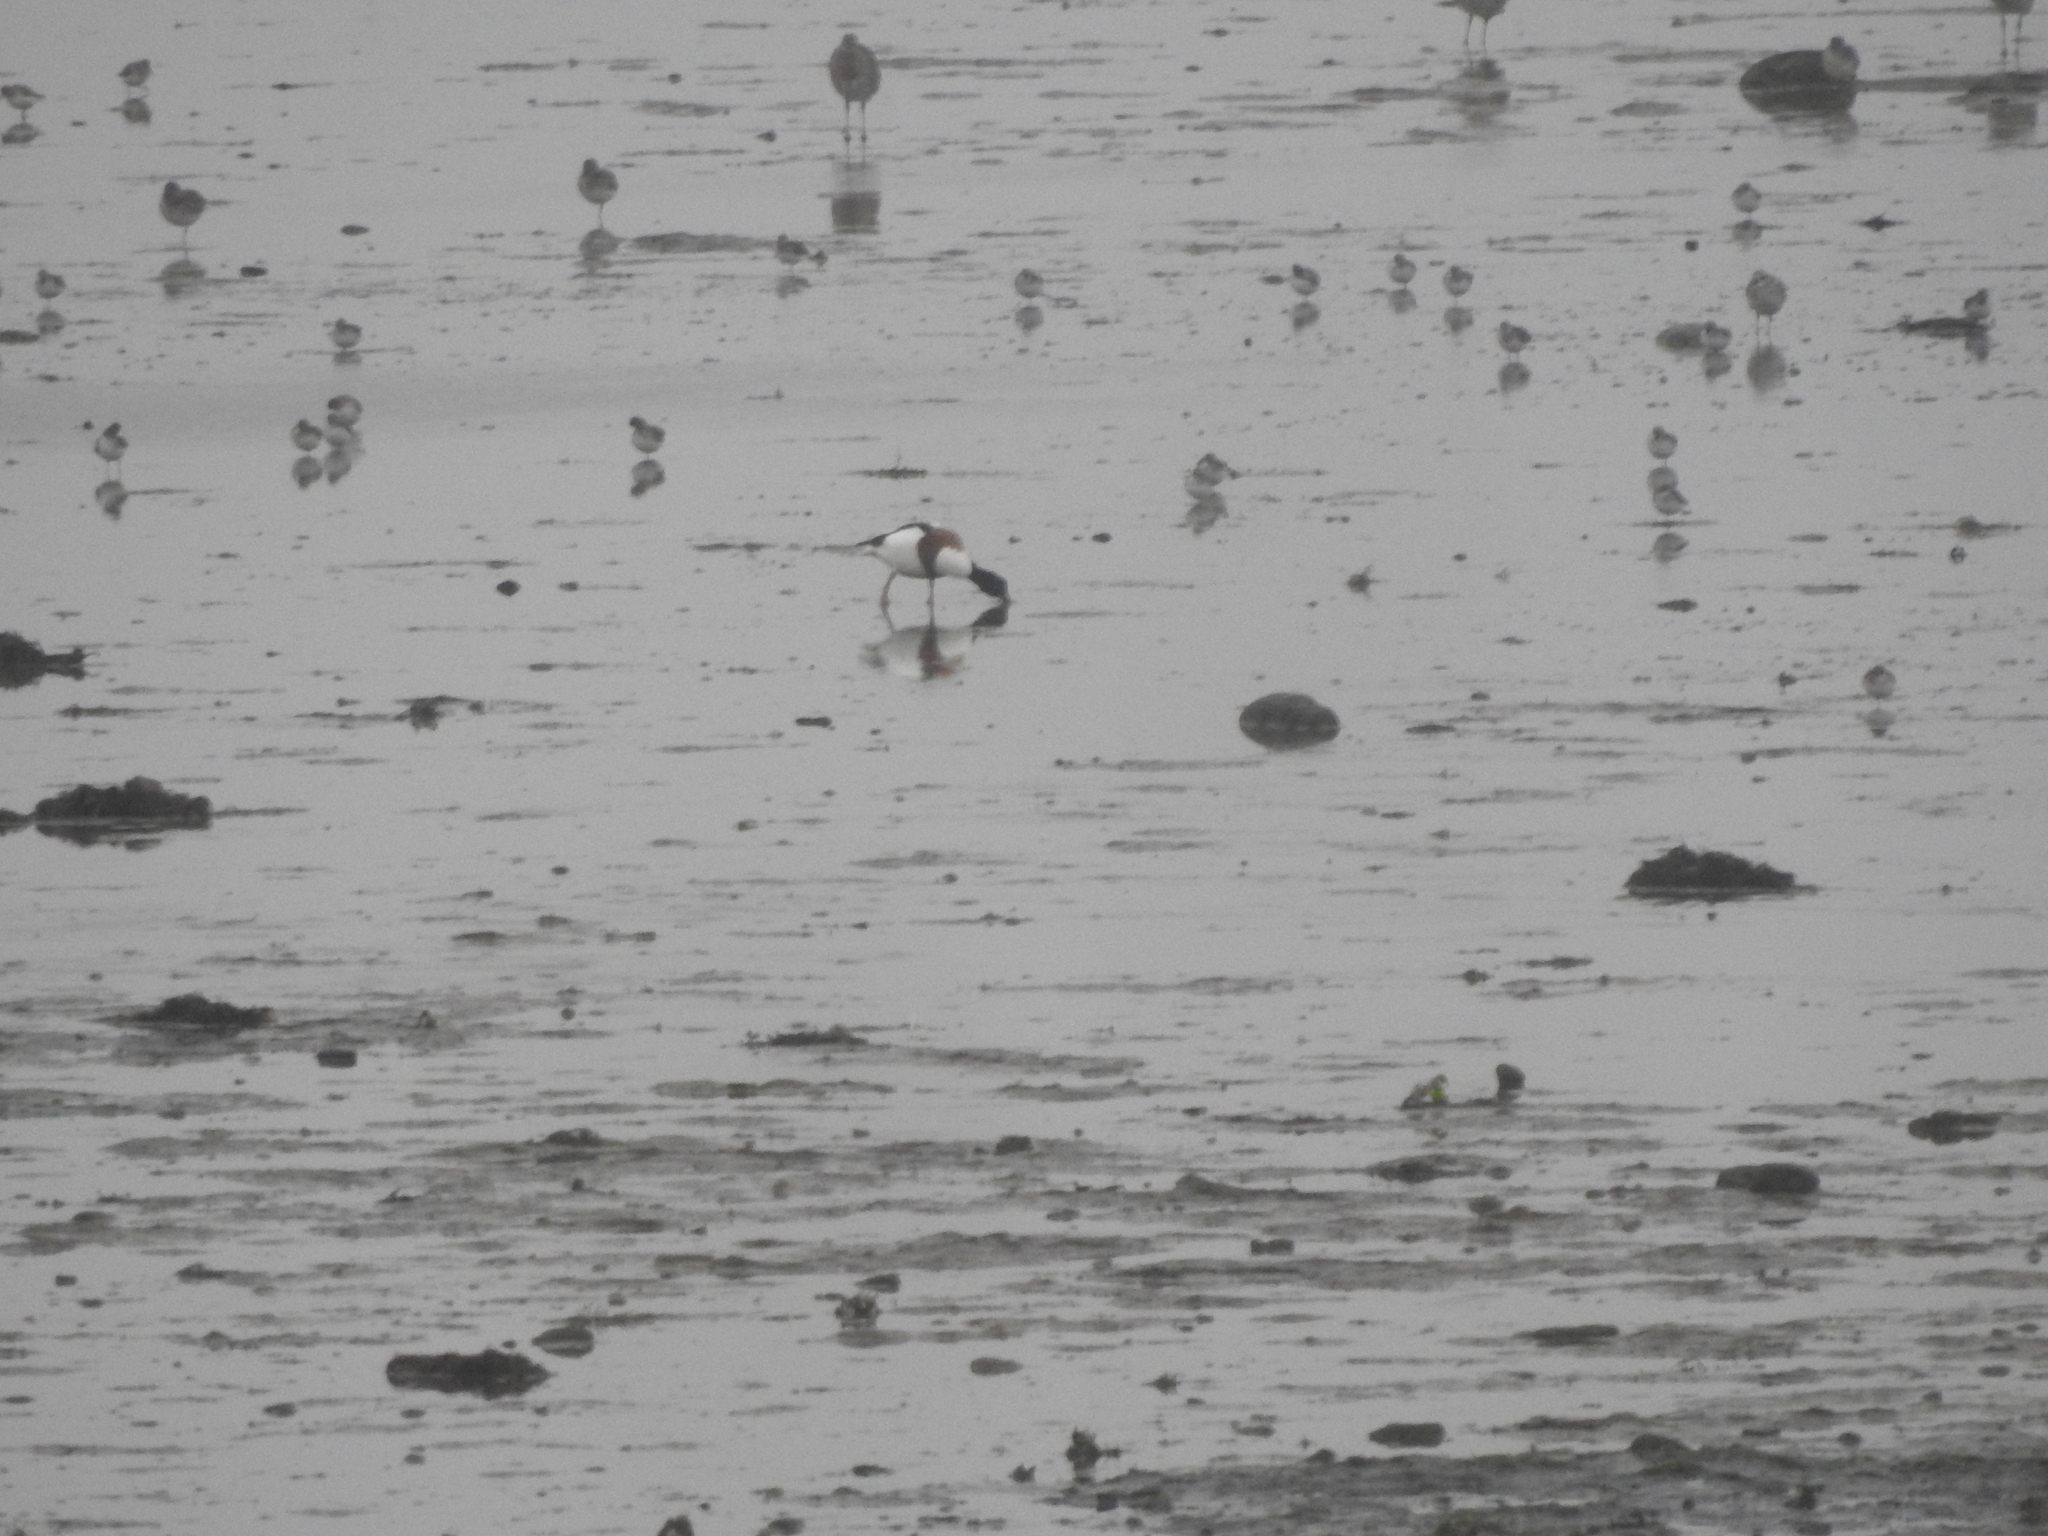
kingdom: Animalia
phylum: Chordata
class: Aves
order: Anseriformes
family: Anatidae
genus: Tadorna
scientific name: Tadorna tadorna
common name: Common shelduck
